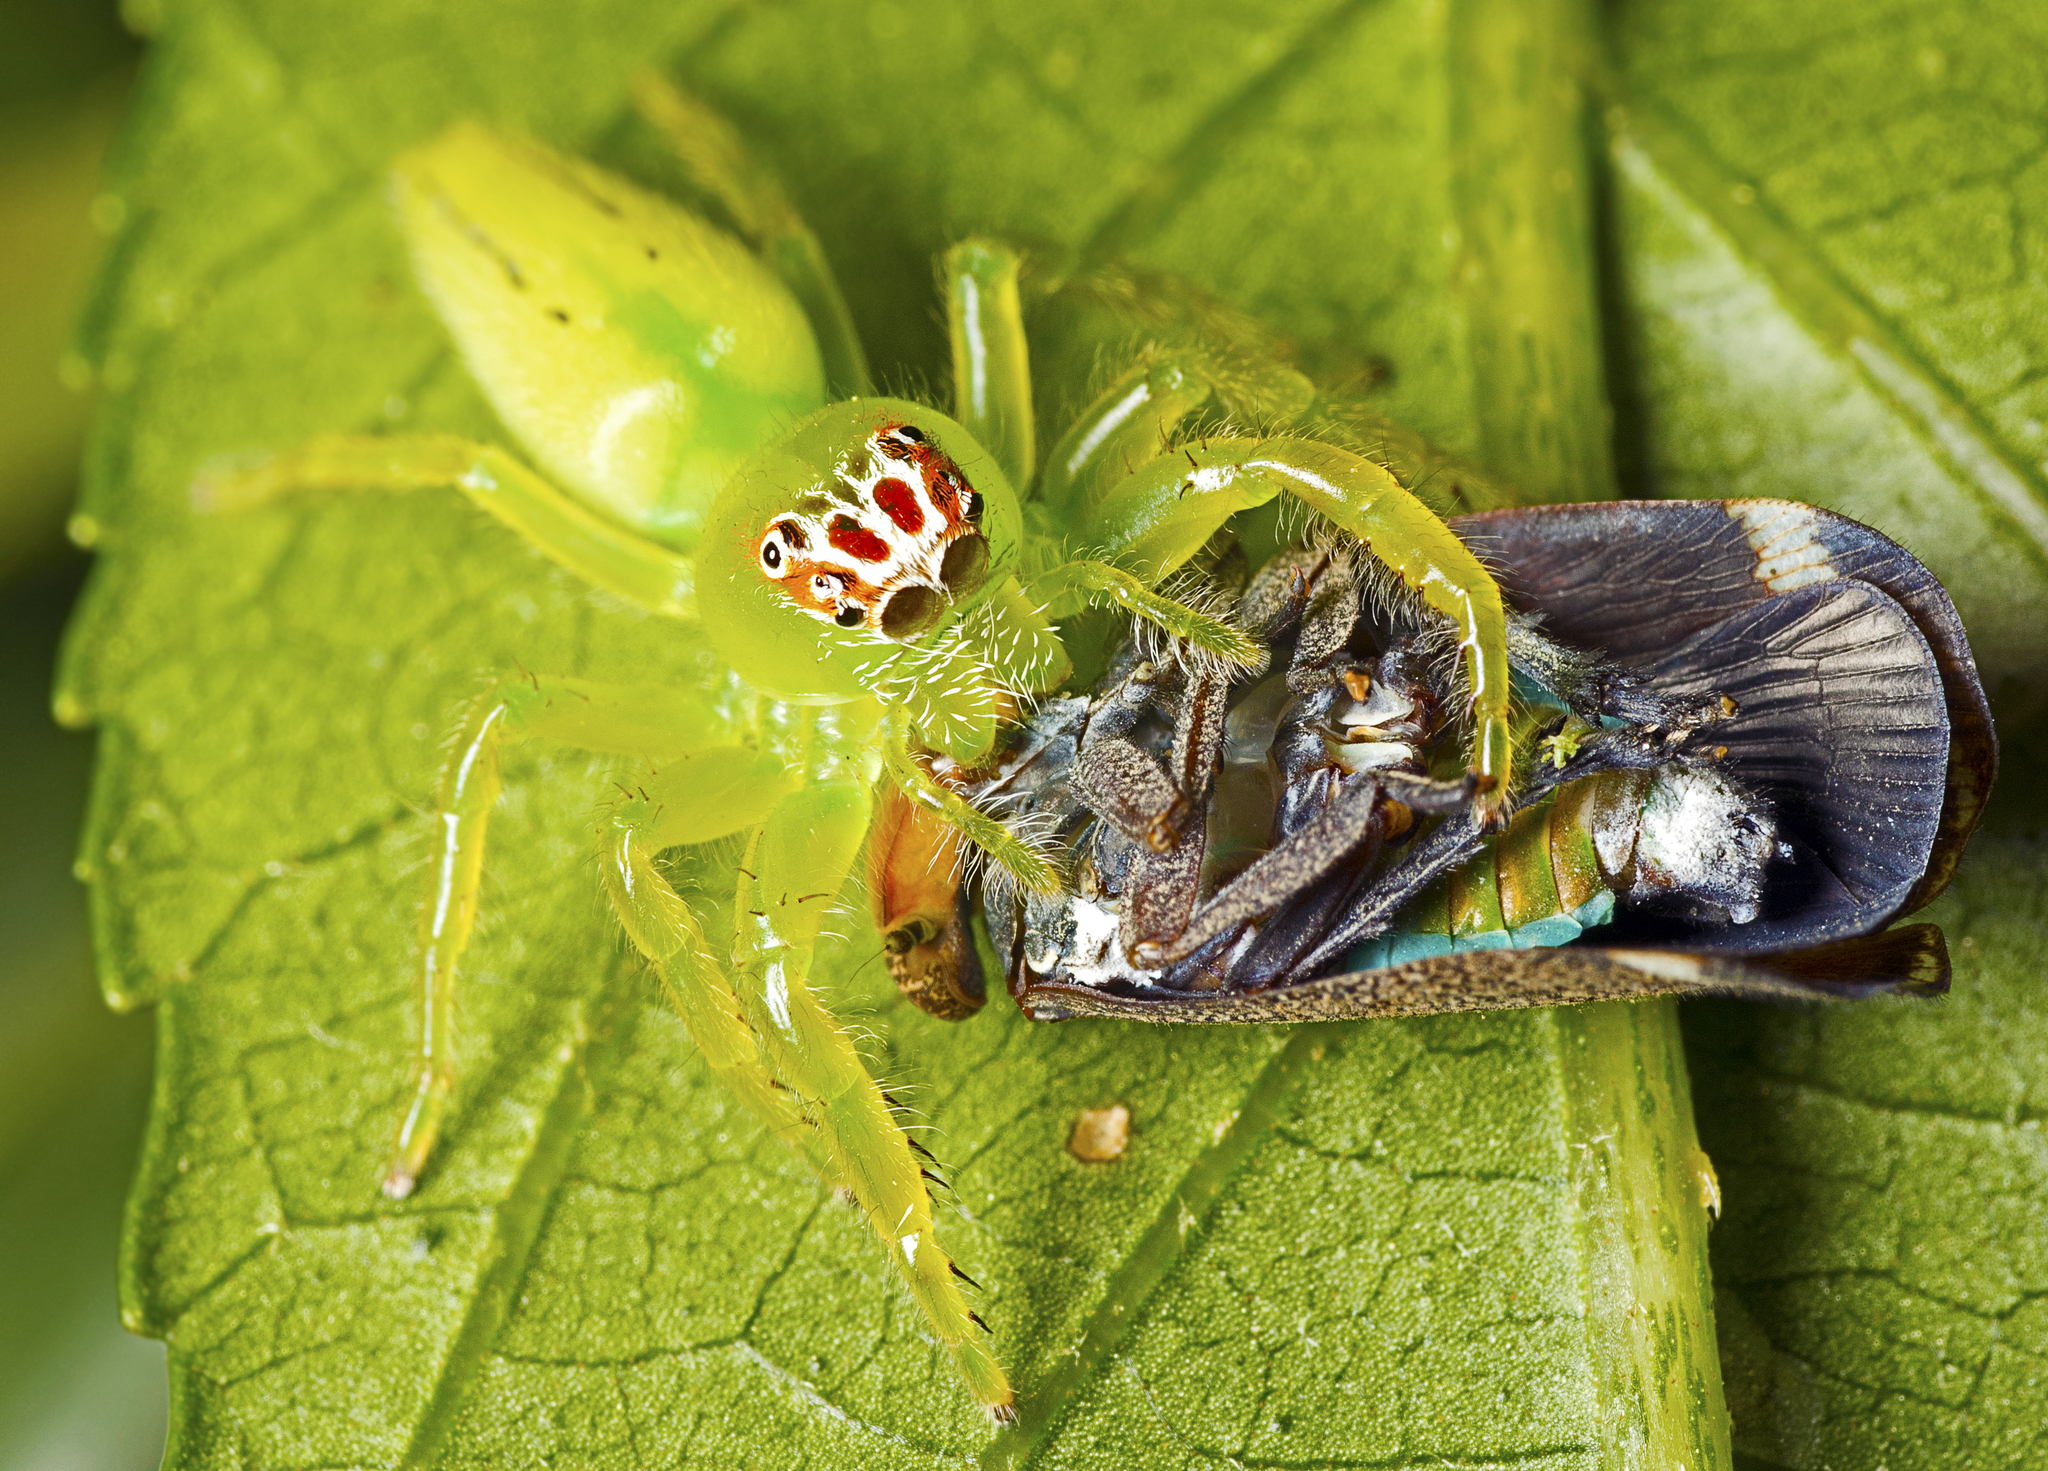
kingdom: Animalia
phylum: Arthropoda
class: Arachnida
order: Araneae
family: Salticidae
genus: Mopsus
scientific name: Mopsus mormon
